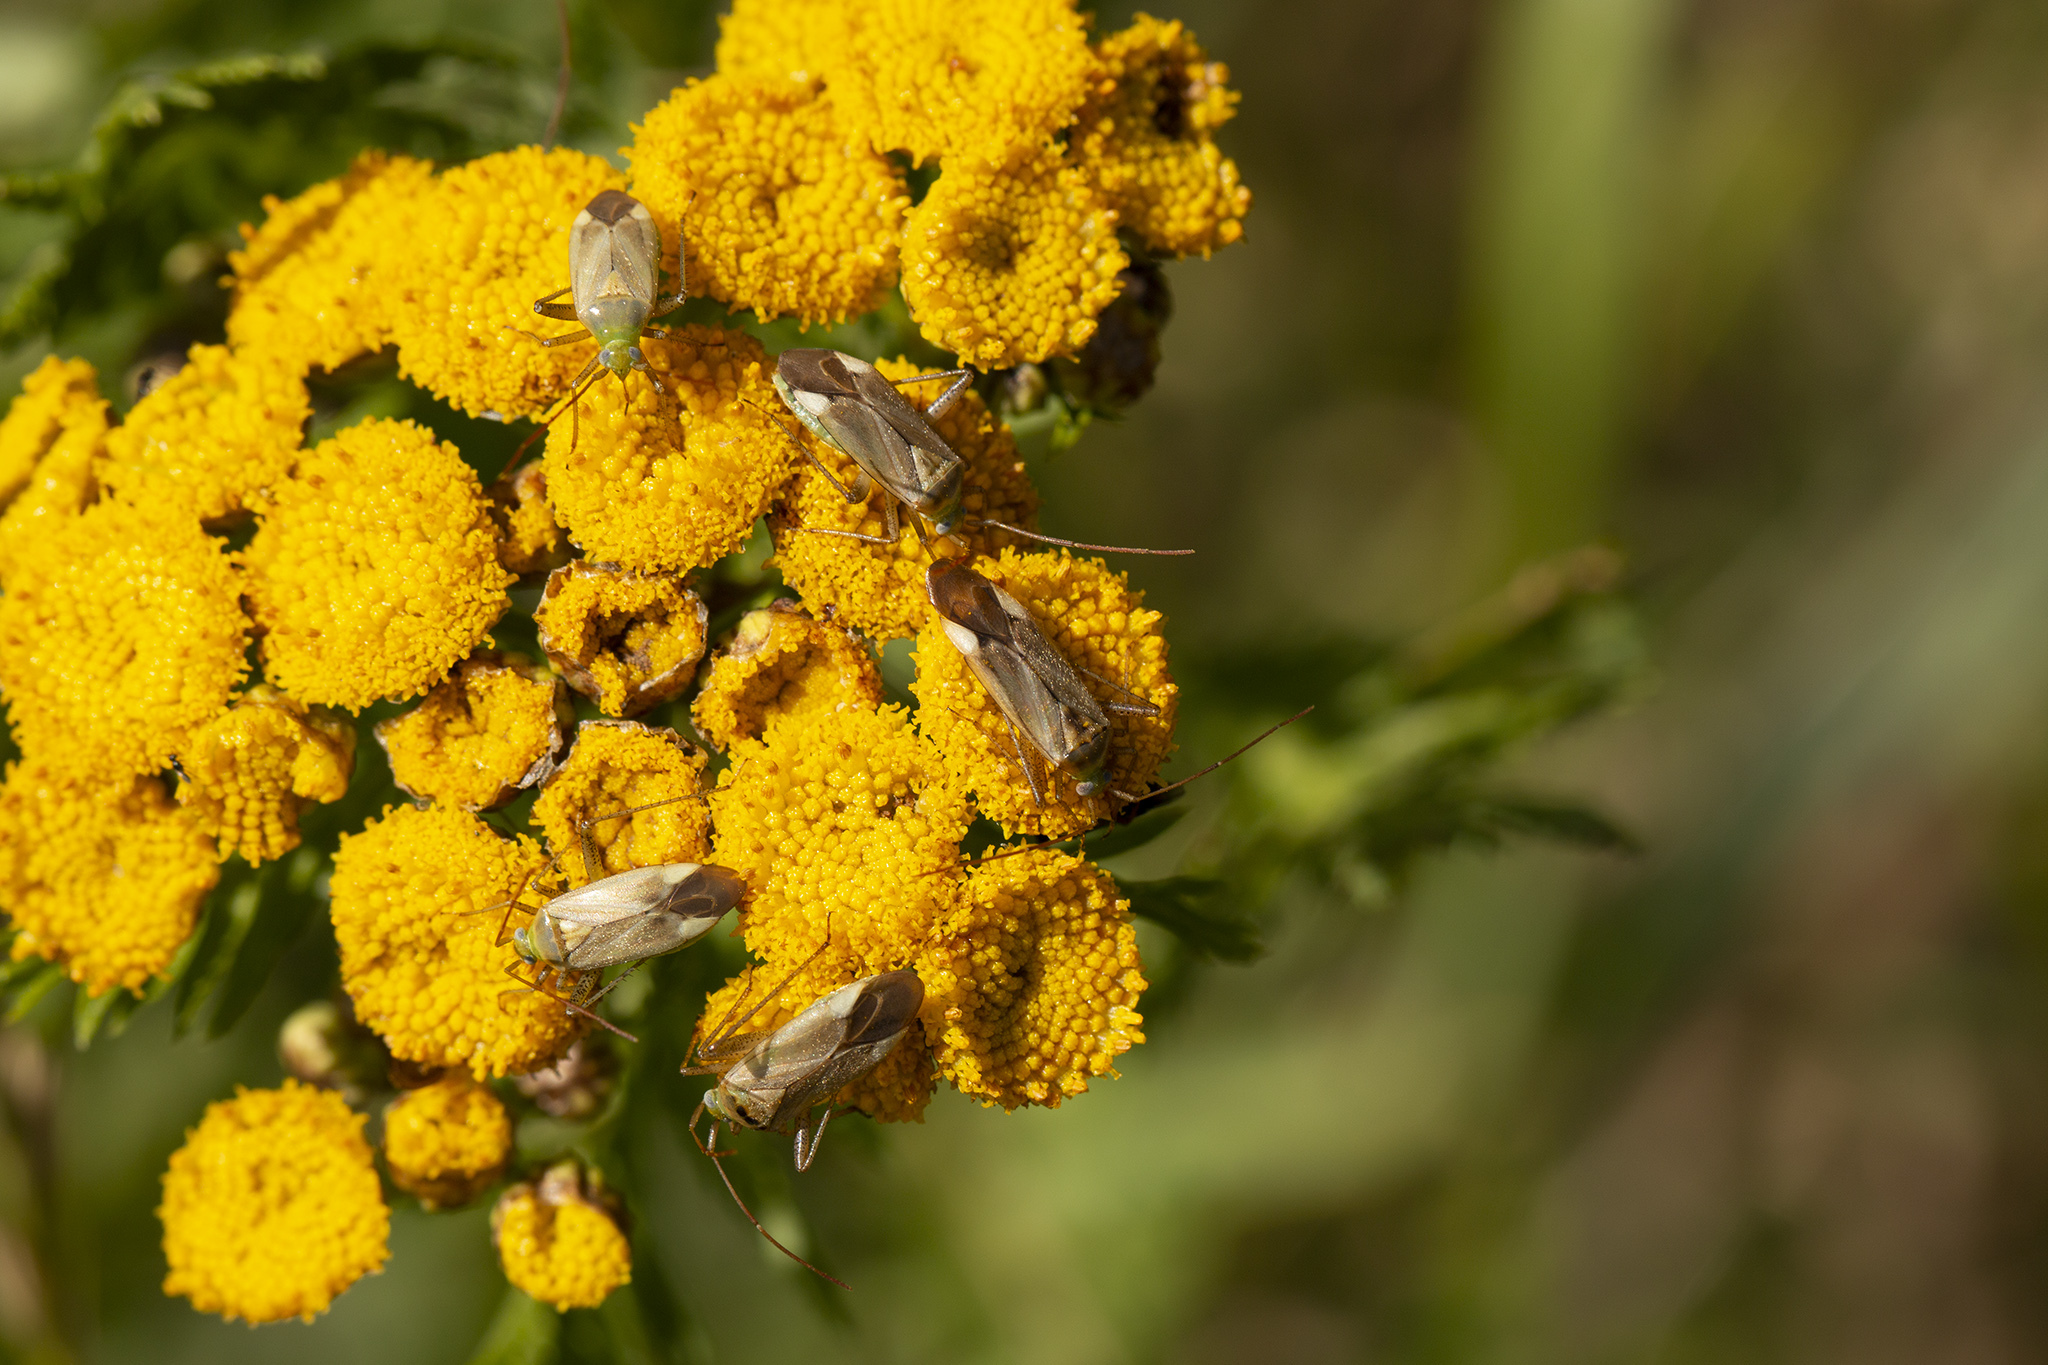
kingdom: Animalia
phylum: Arthropoda
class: Insecta
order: Hemiptera
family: Miridae
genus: Adelphocoris
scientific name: Adelphocoris lineolatus
